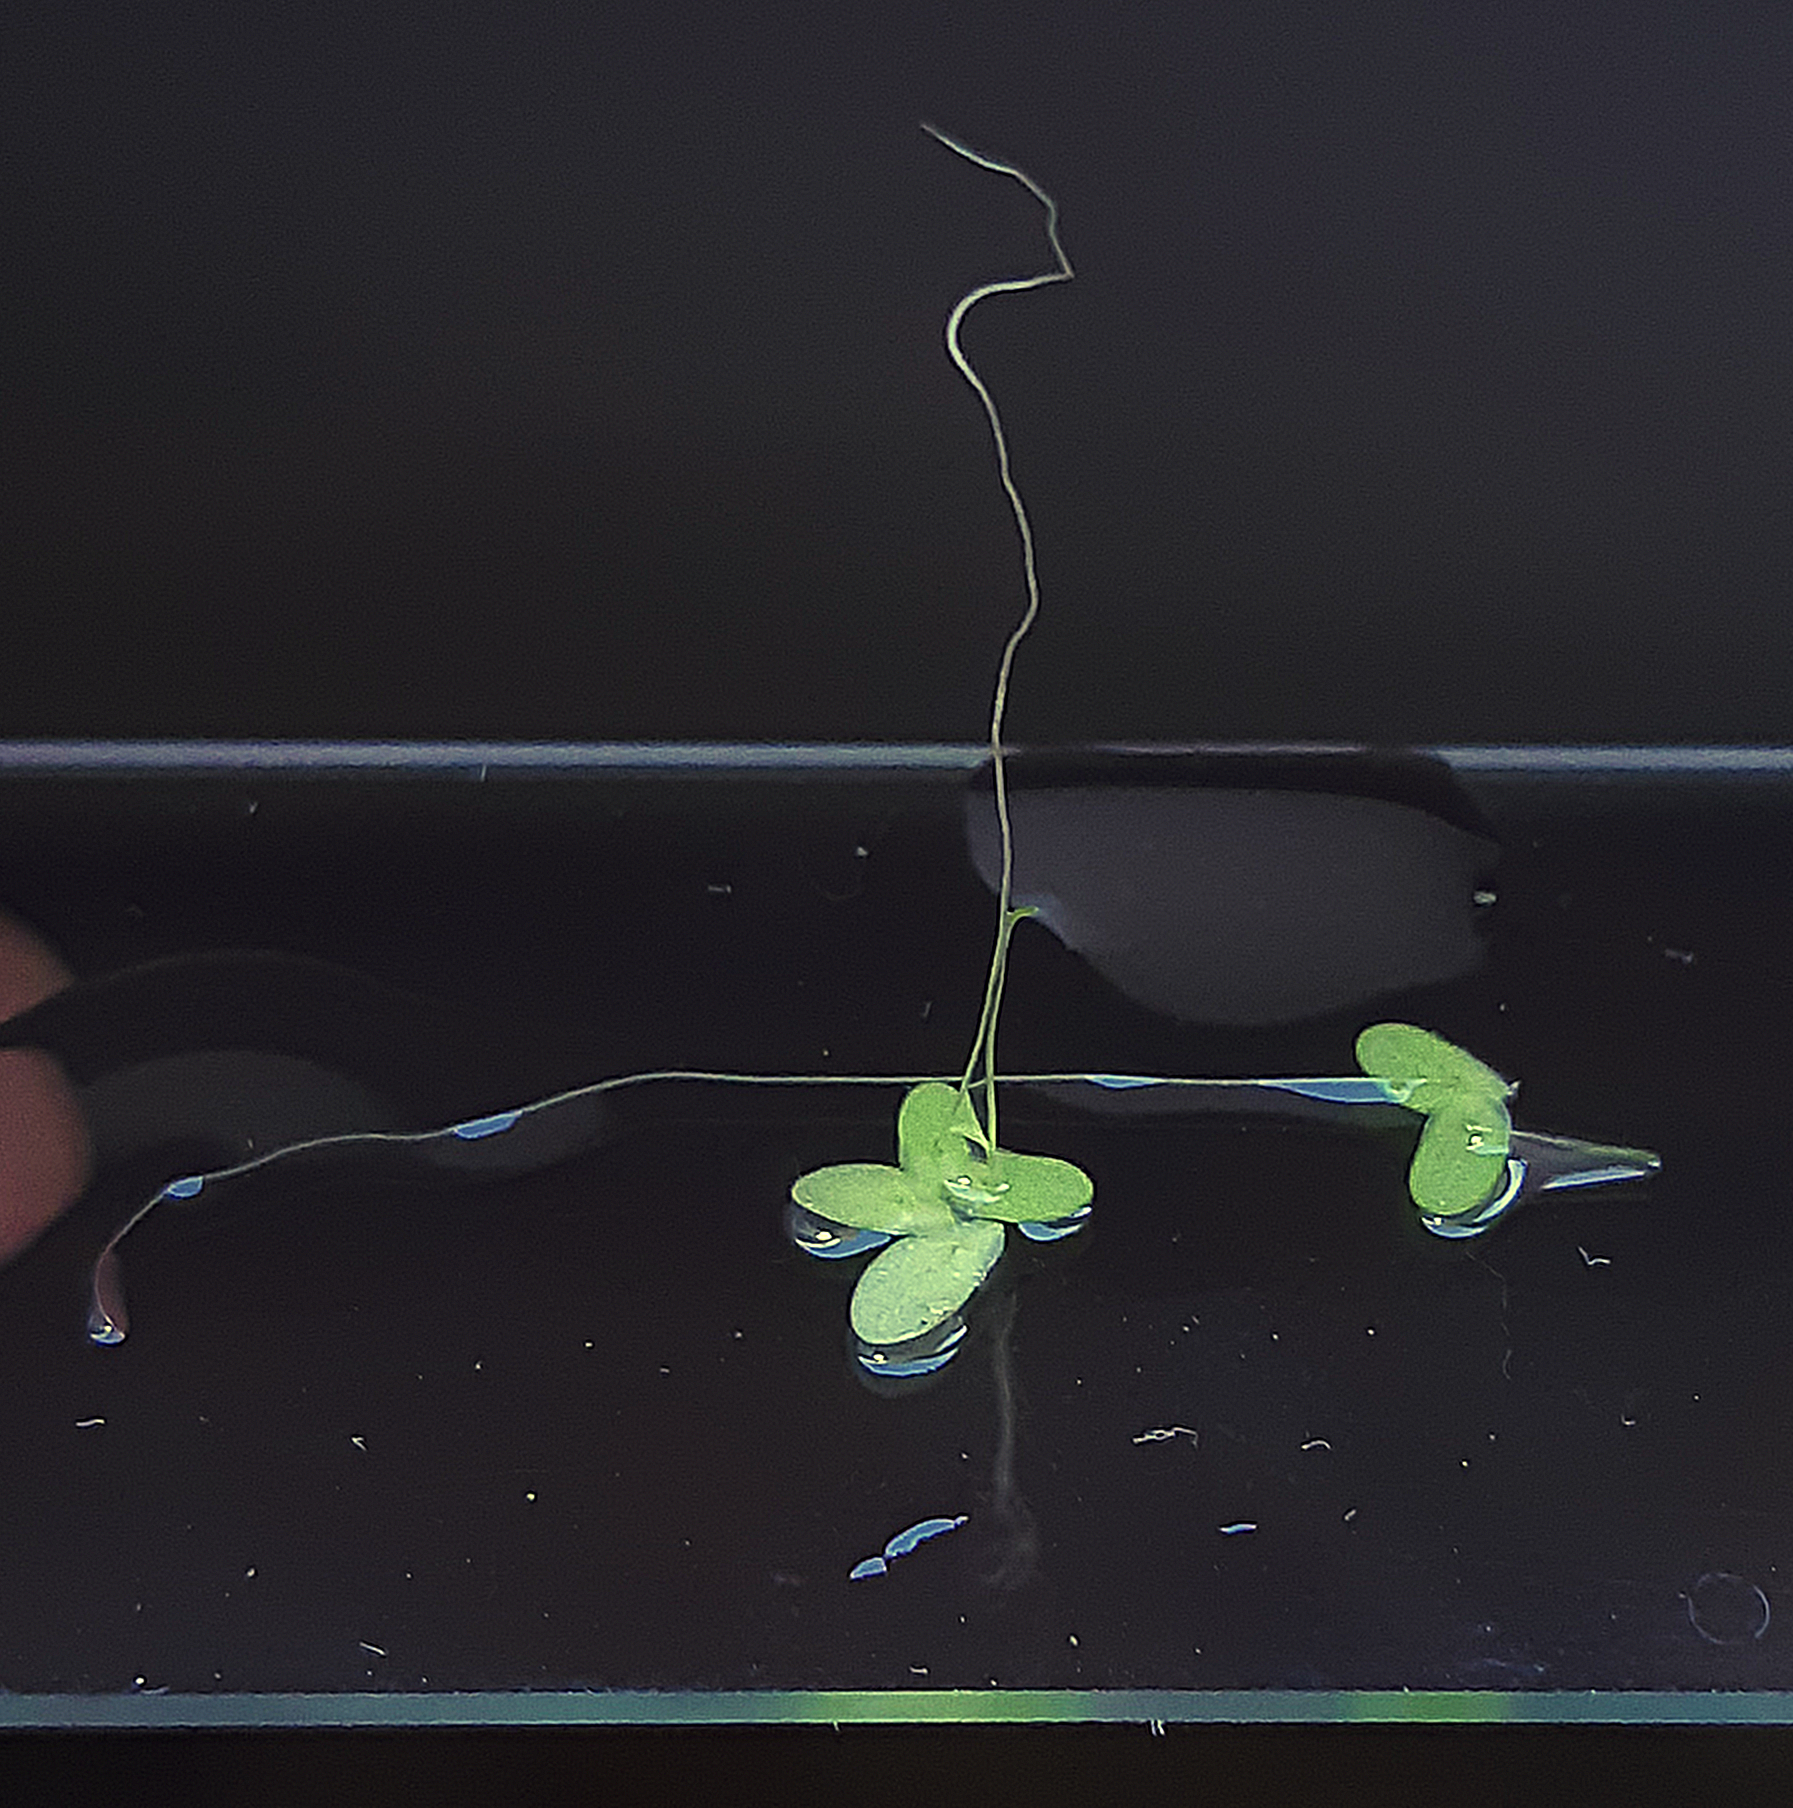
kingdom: Plantae
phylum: Tracheophyta
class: Liliopsida
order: Alismatales
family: Araceae
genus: Lemna
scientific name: Lemna turionifera
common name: Perennial duckweed
